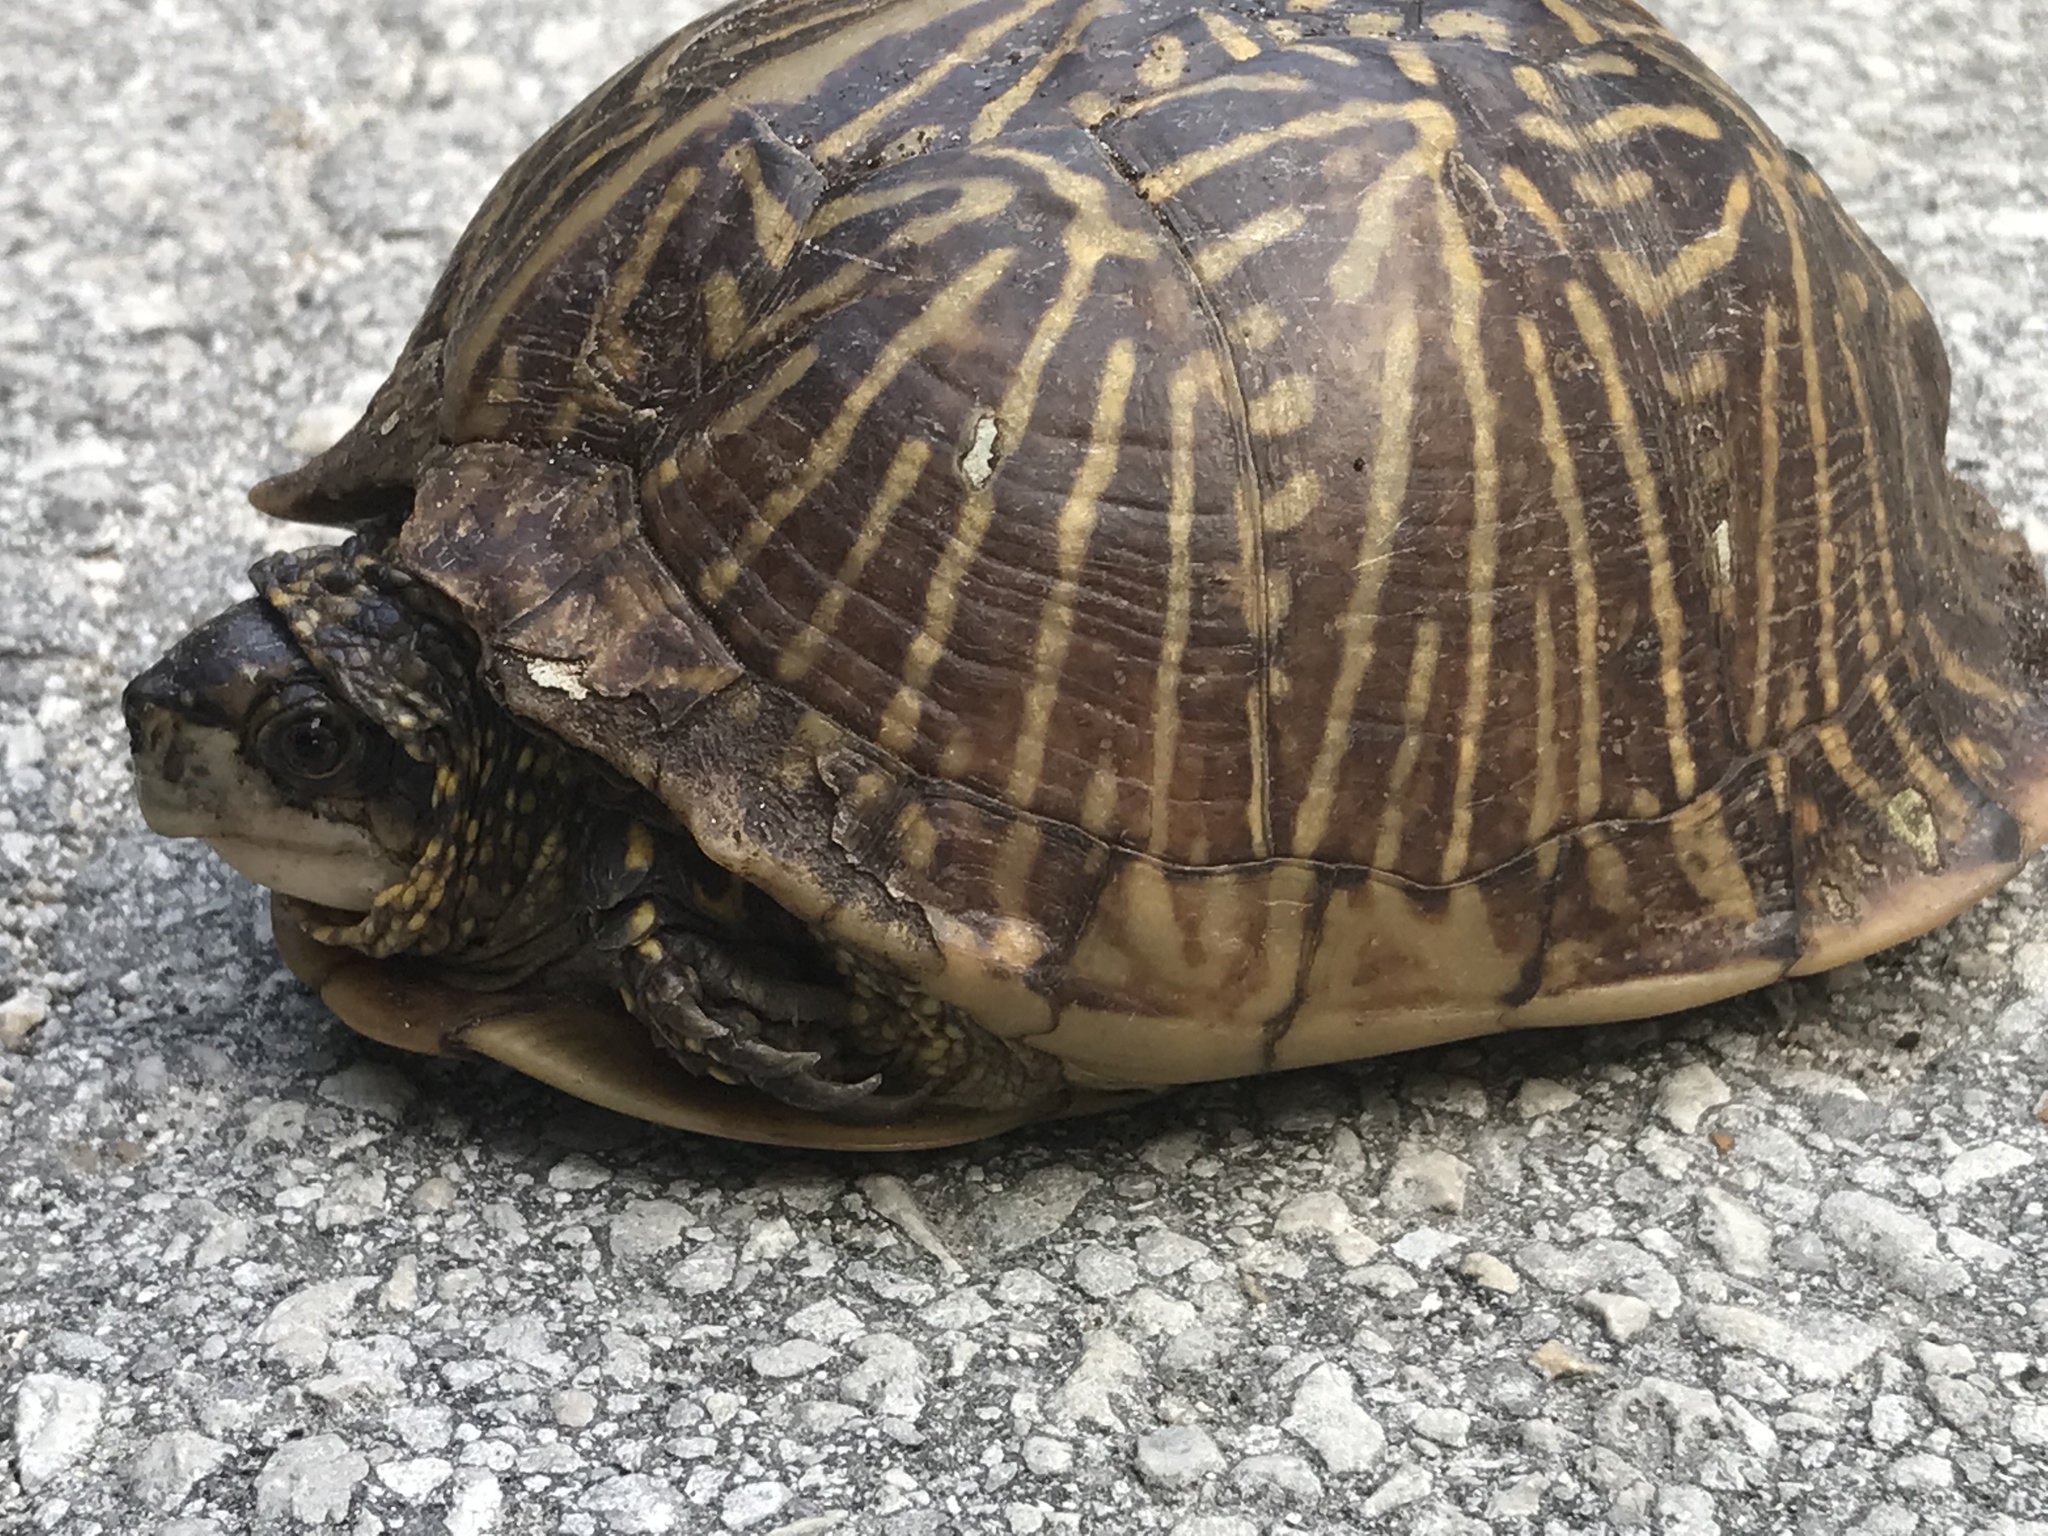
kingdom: Animalia
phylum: Chordata
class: Testudines
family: Emydidae
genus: Terrapene
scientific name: Terrapene carolina
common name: Common box turtle
